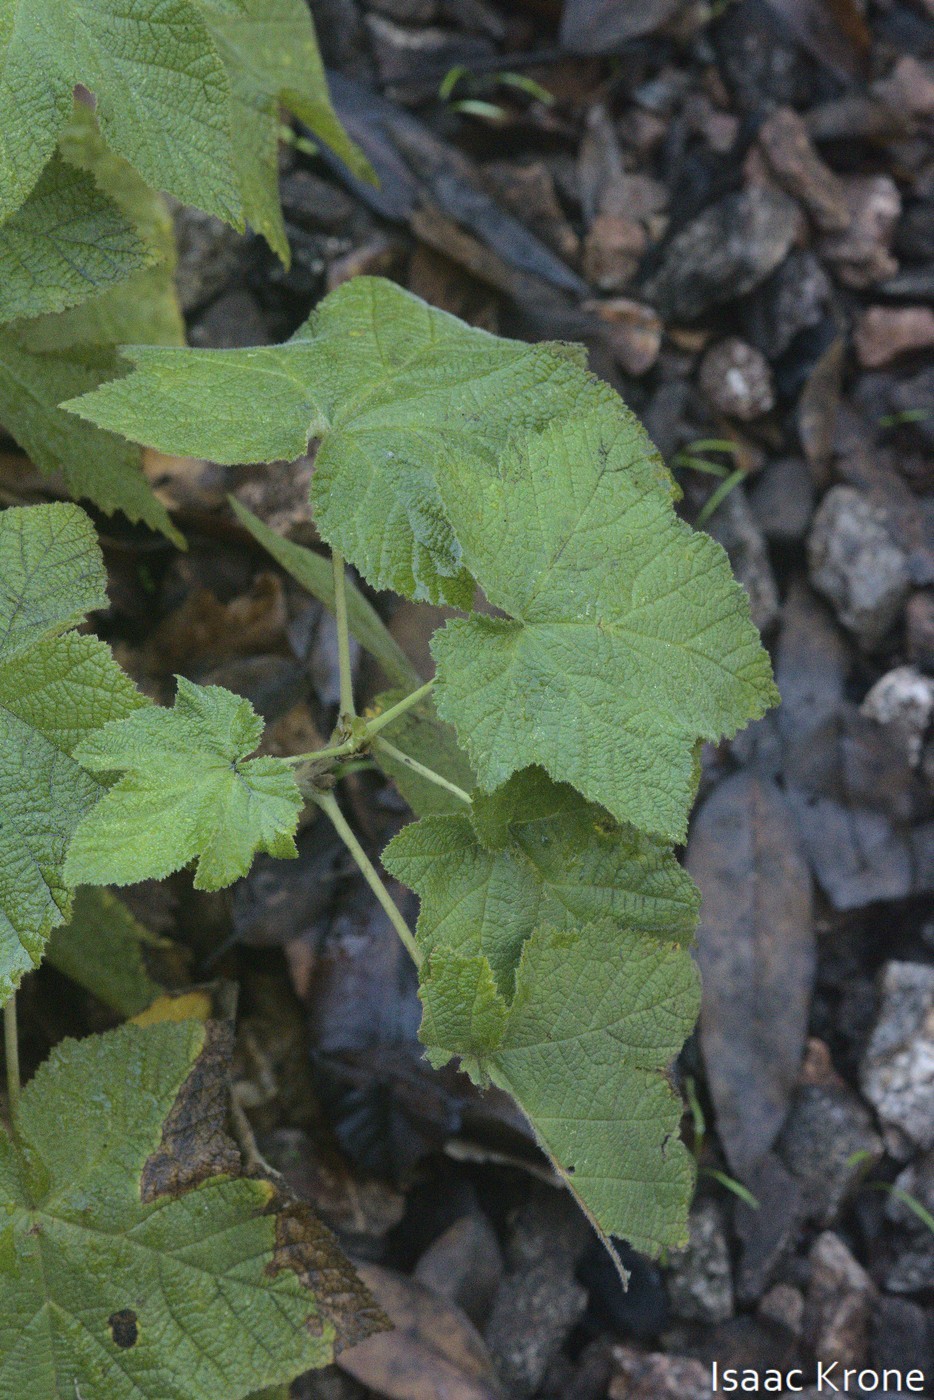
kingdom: Plantae
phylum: Tracheophyta
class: Magnoliopsida
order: Rosales
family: Rosaceae
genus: Rubus
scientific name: Rubus parviflorus
